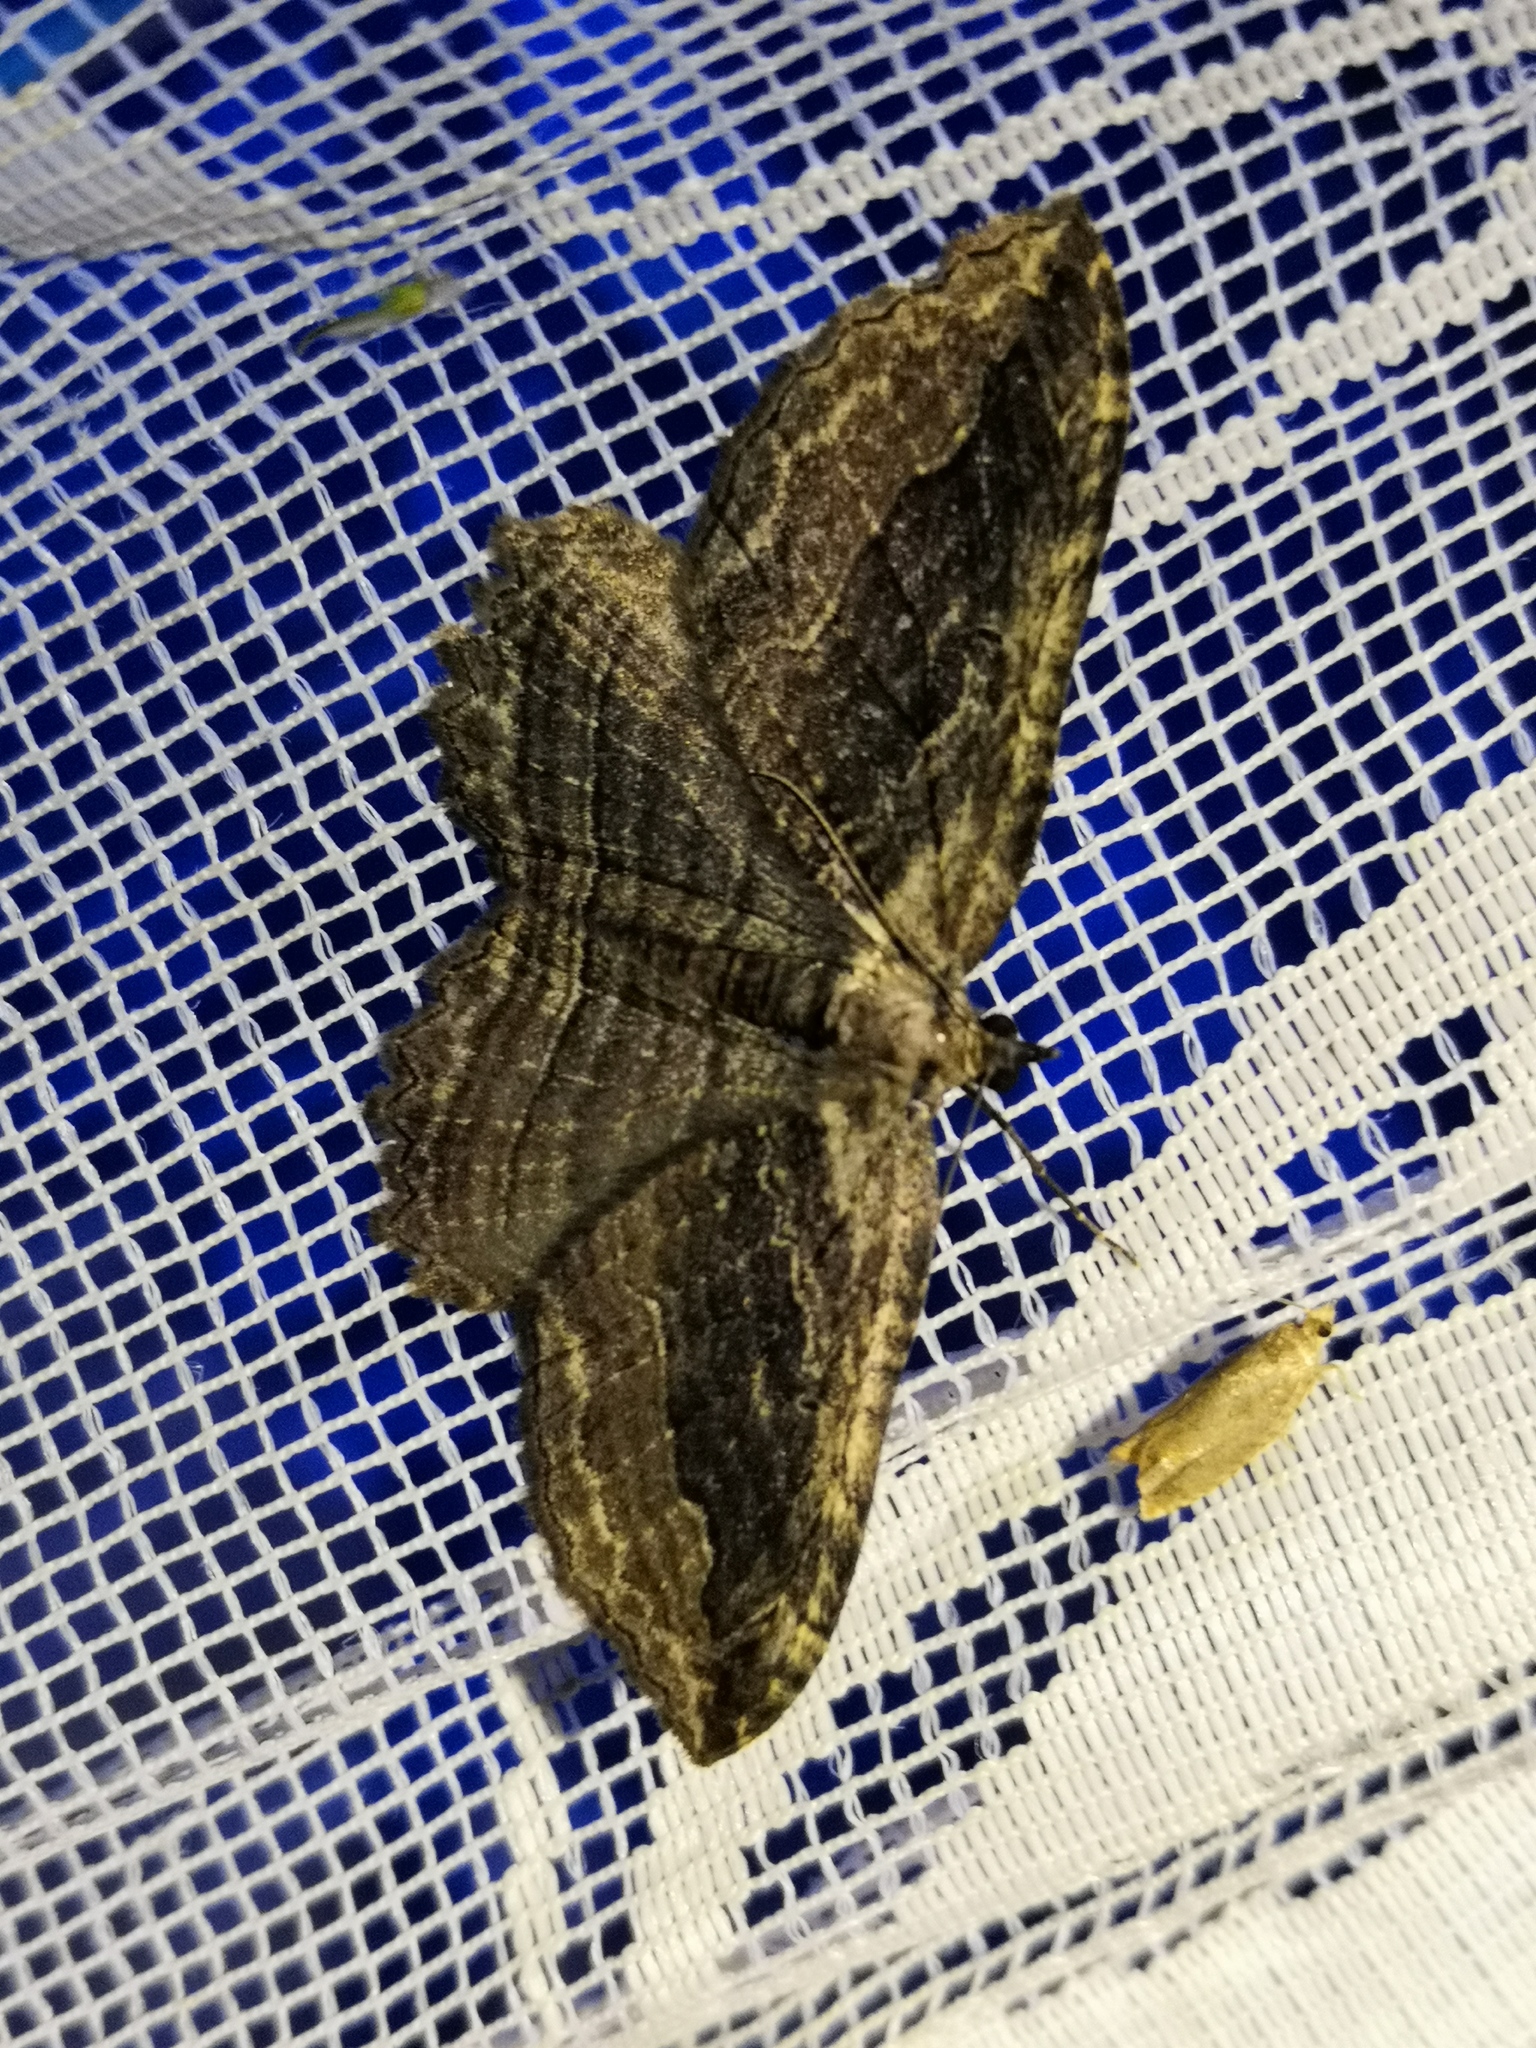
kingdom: Animalia
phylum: Arthropoda
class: Insecta
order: Lepidoptera
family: Geometridae
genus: Philereme
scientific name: Philereme transversata
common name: Dark umber
